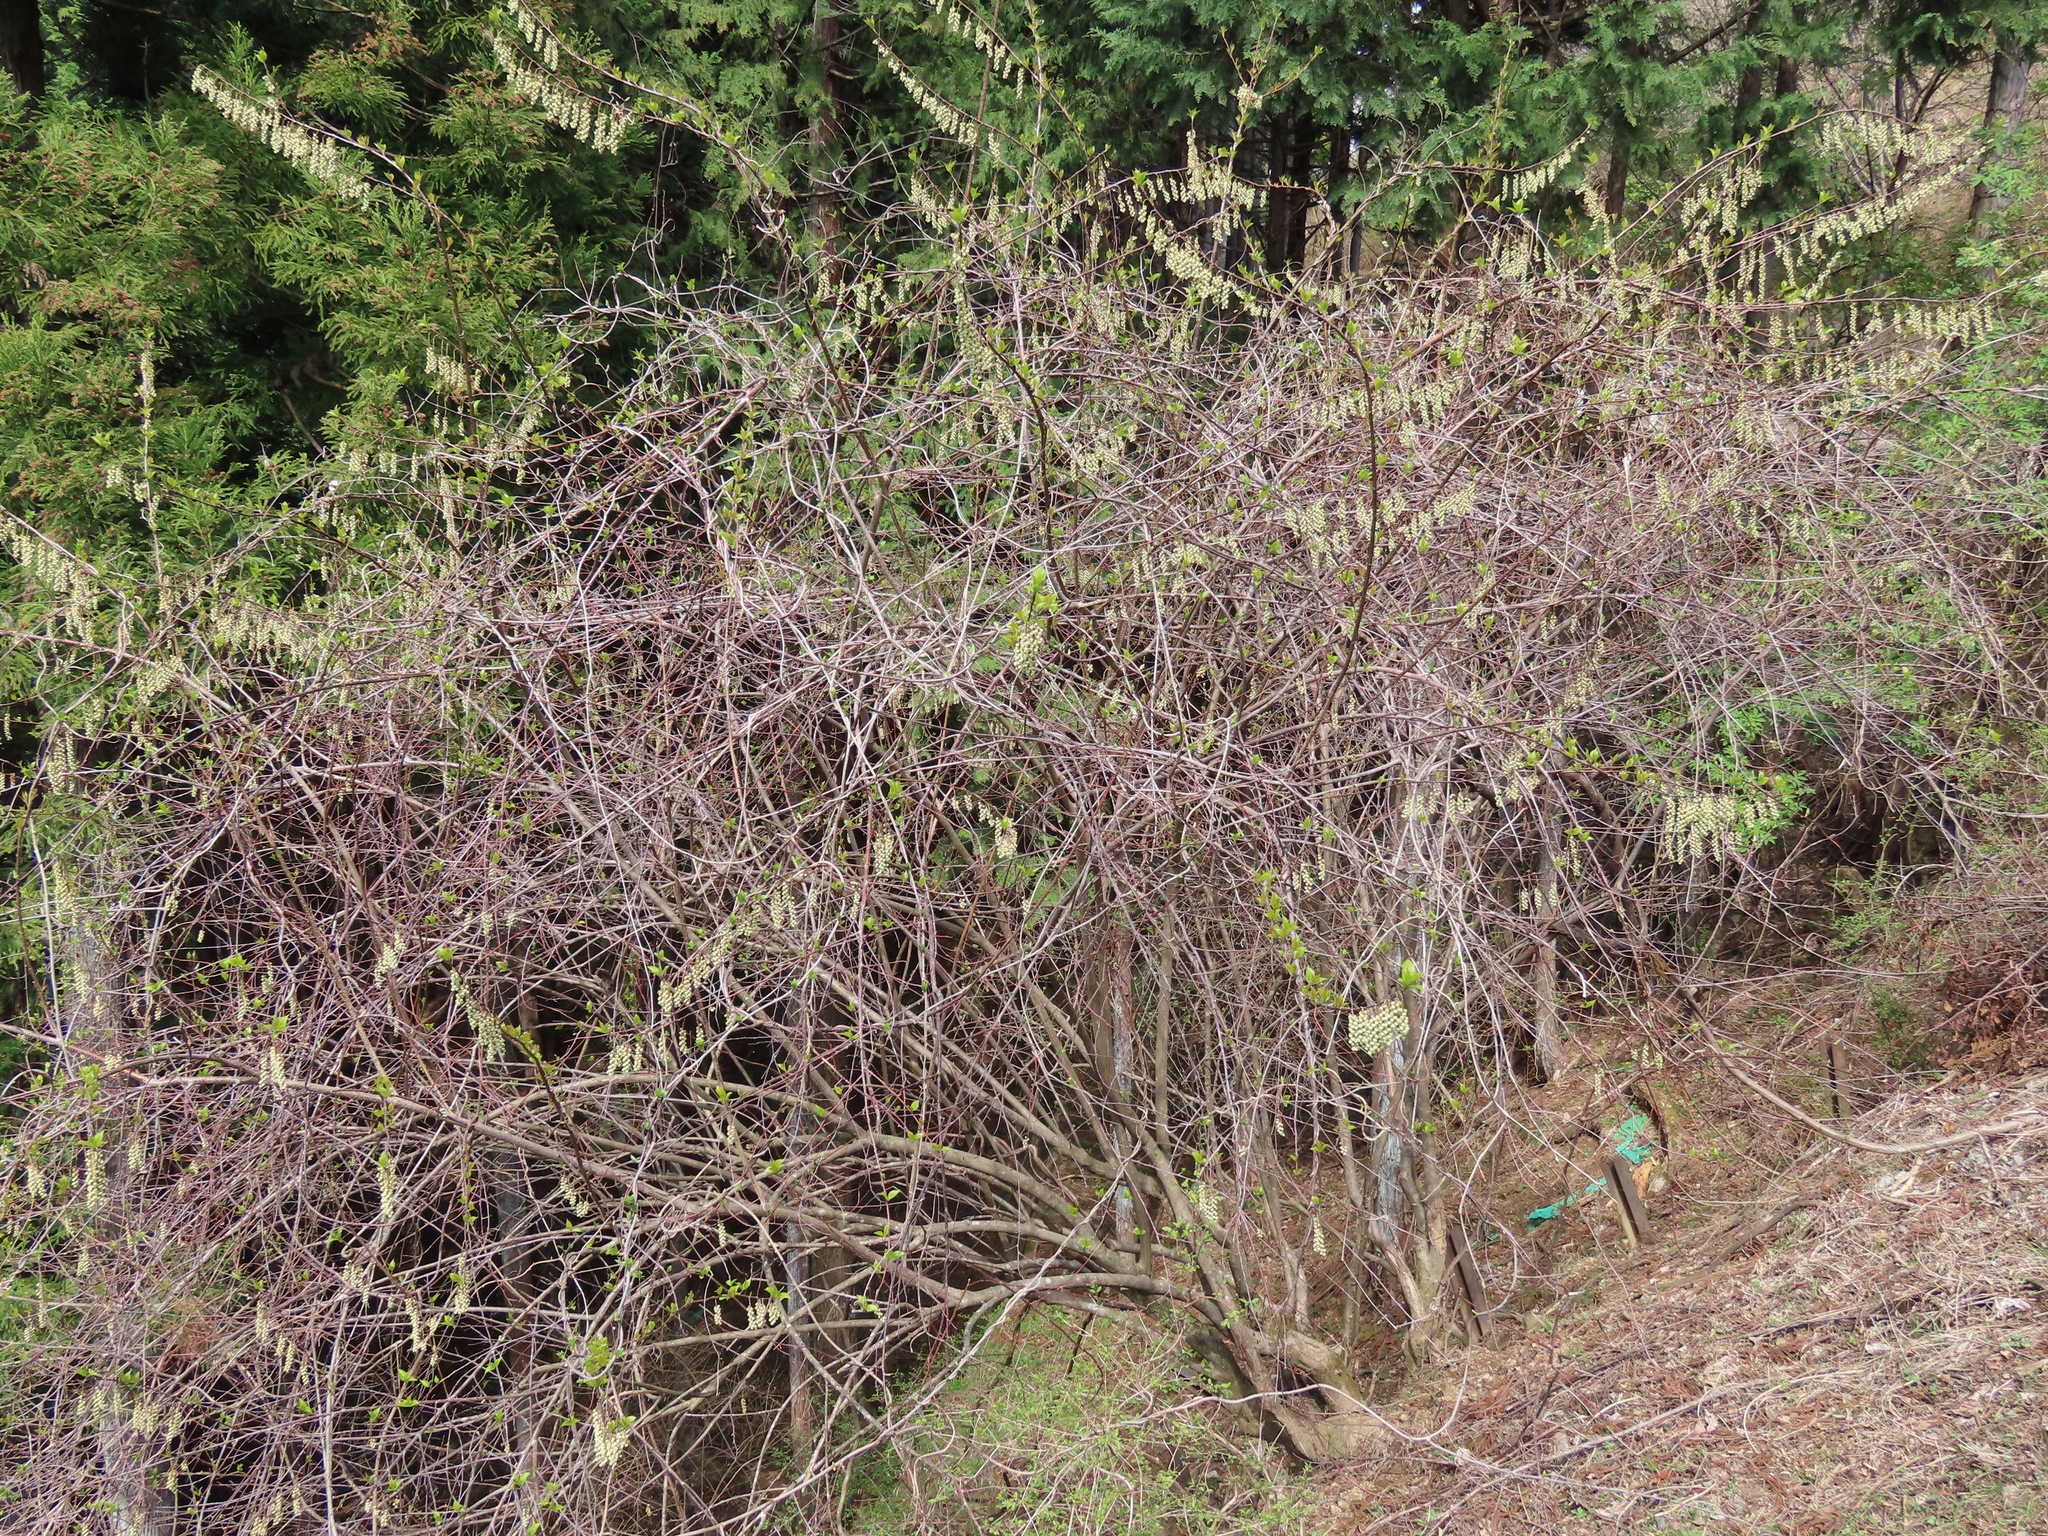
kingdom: Plantae
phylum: Tracheophyta
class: Magnoliopsida
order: Crossosomatales
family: Stachyuraceae
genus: Stachyurus
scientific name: Stachyurus praecox
